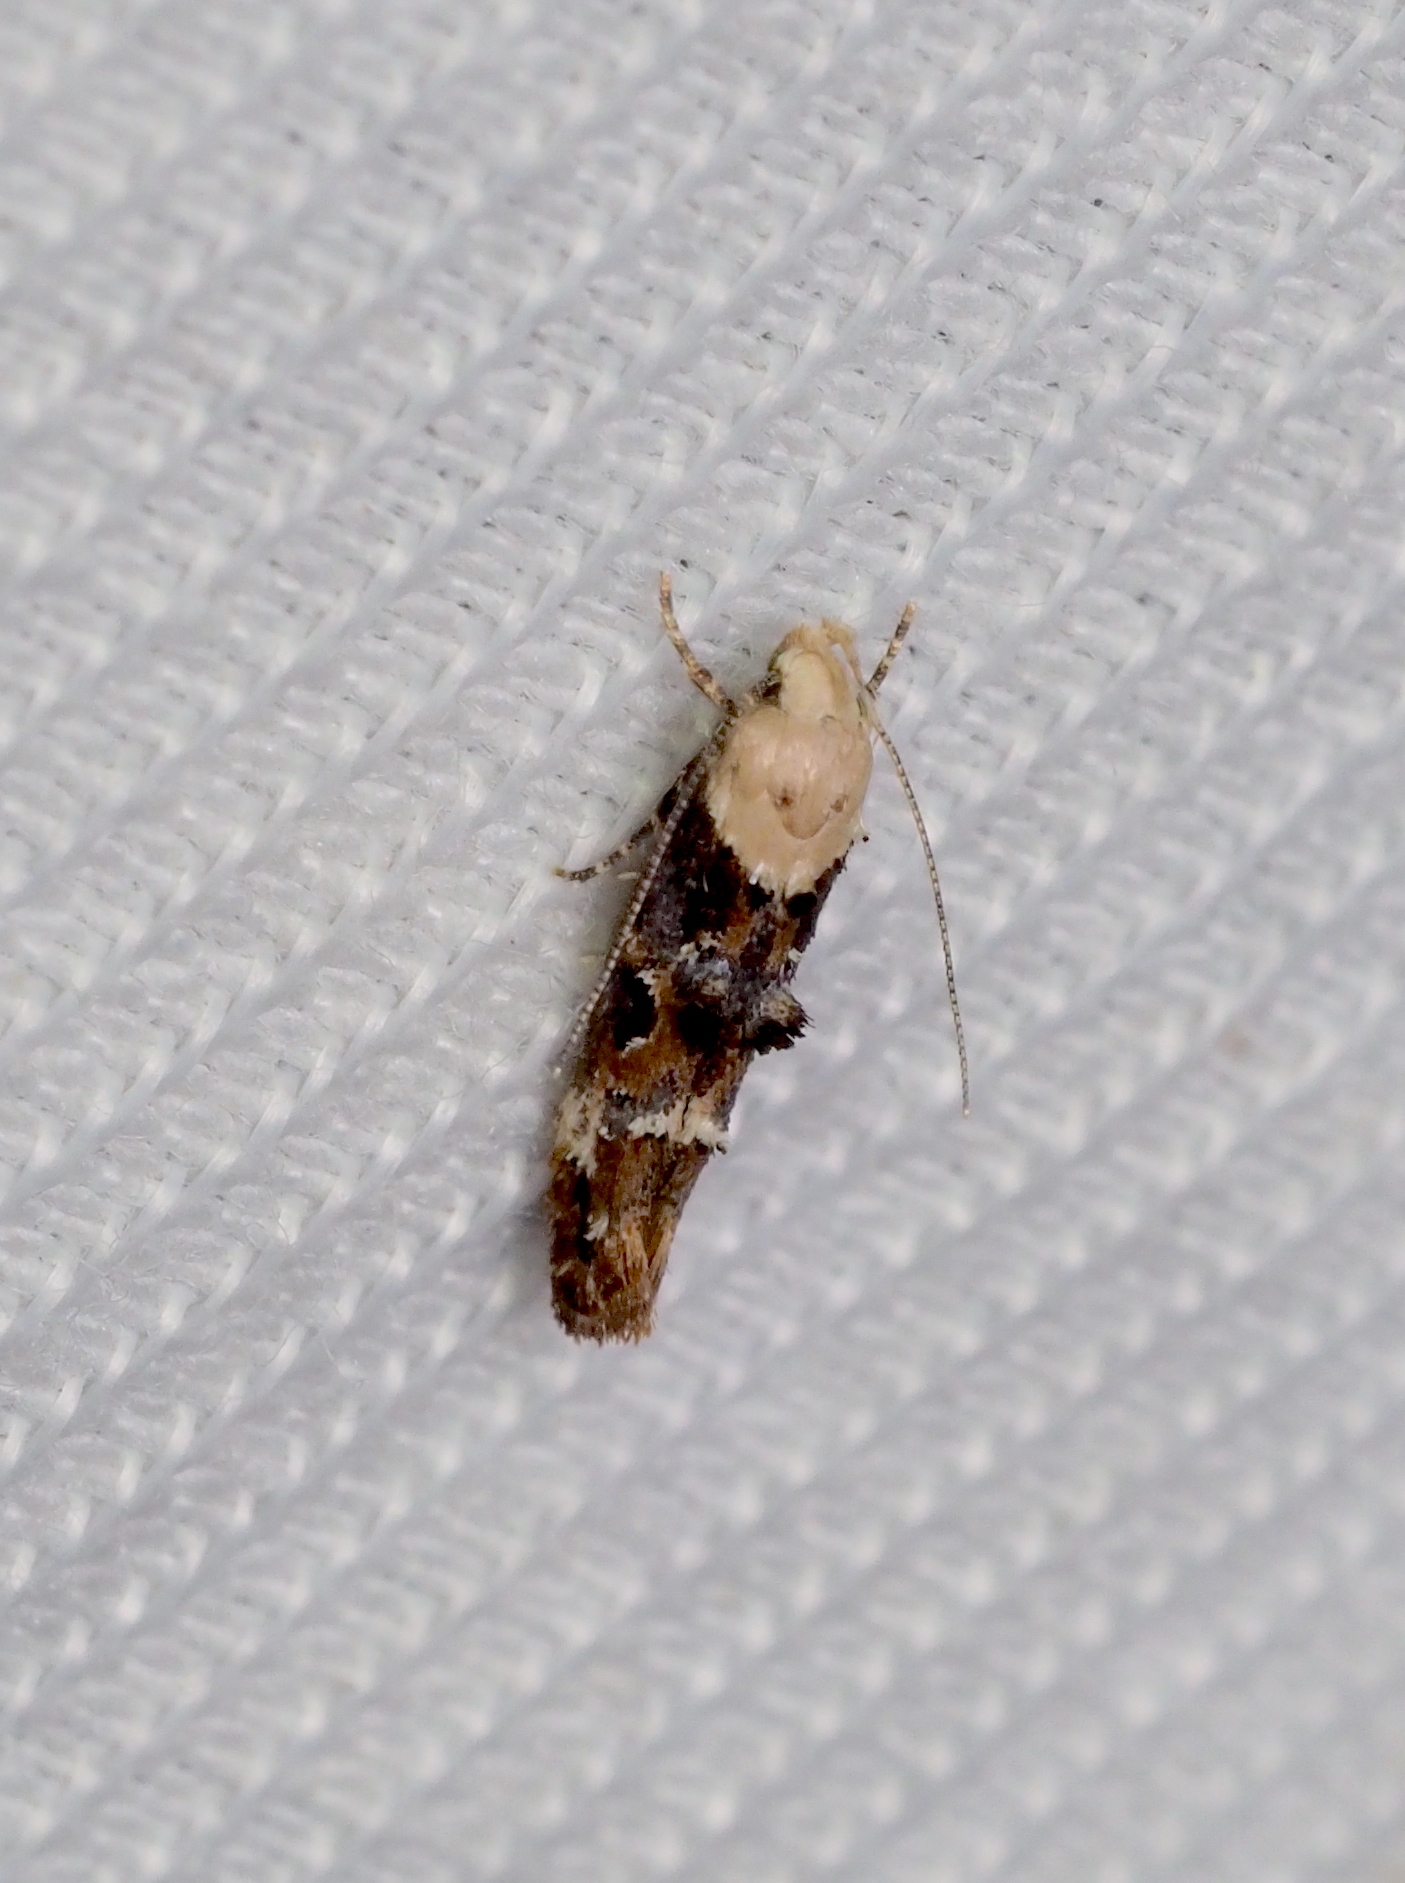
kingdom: Animalia
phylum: Arthropoda
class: Insecta
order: Lepidoptera
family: Momphidae
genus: Mompha
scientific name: Mompha propinquella
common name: Marbled cosmet
